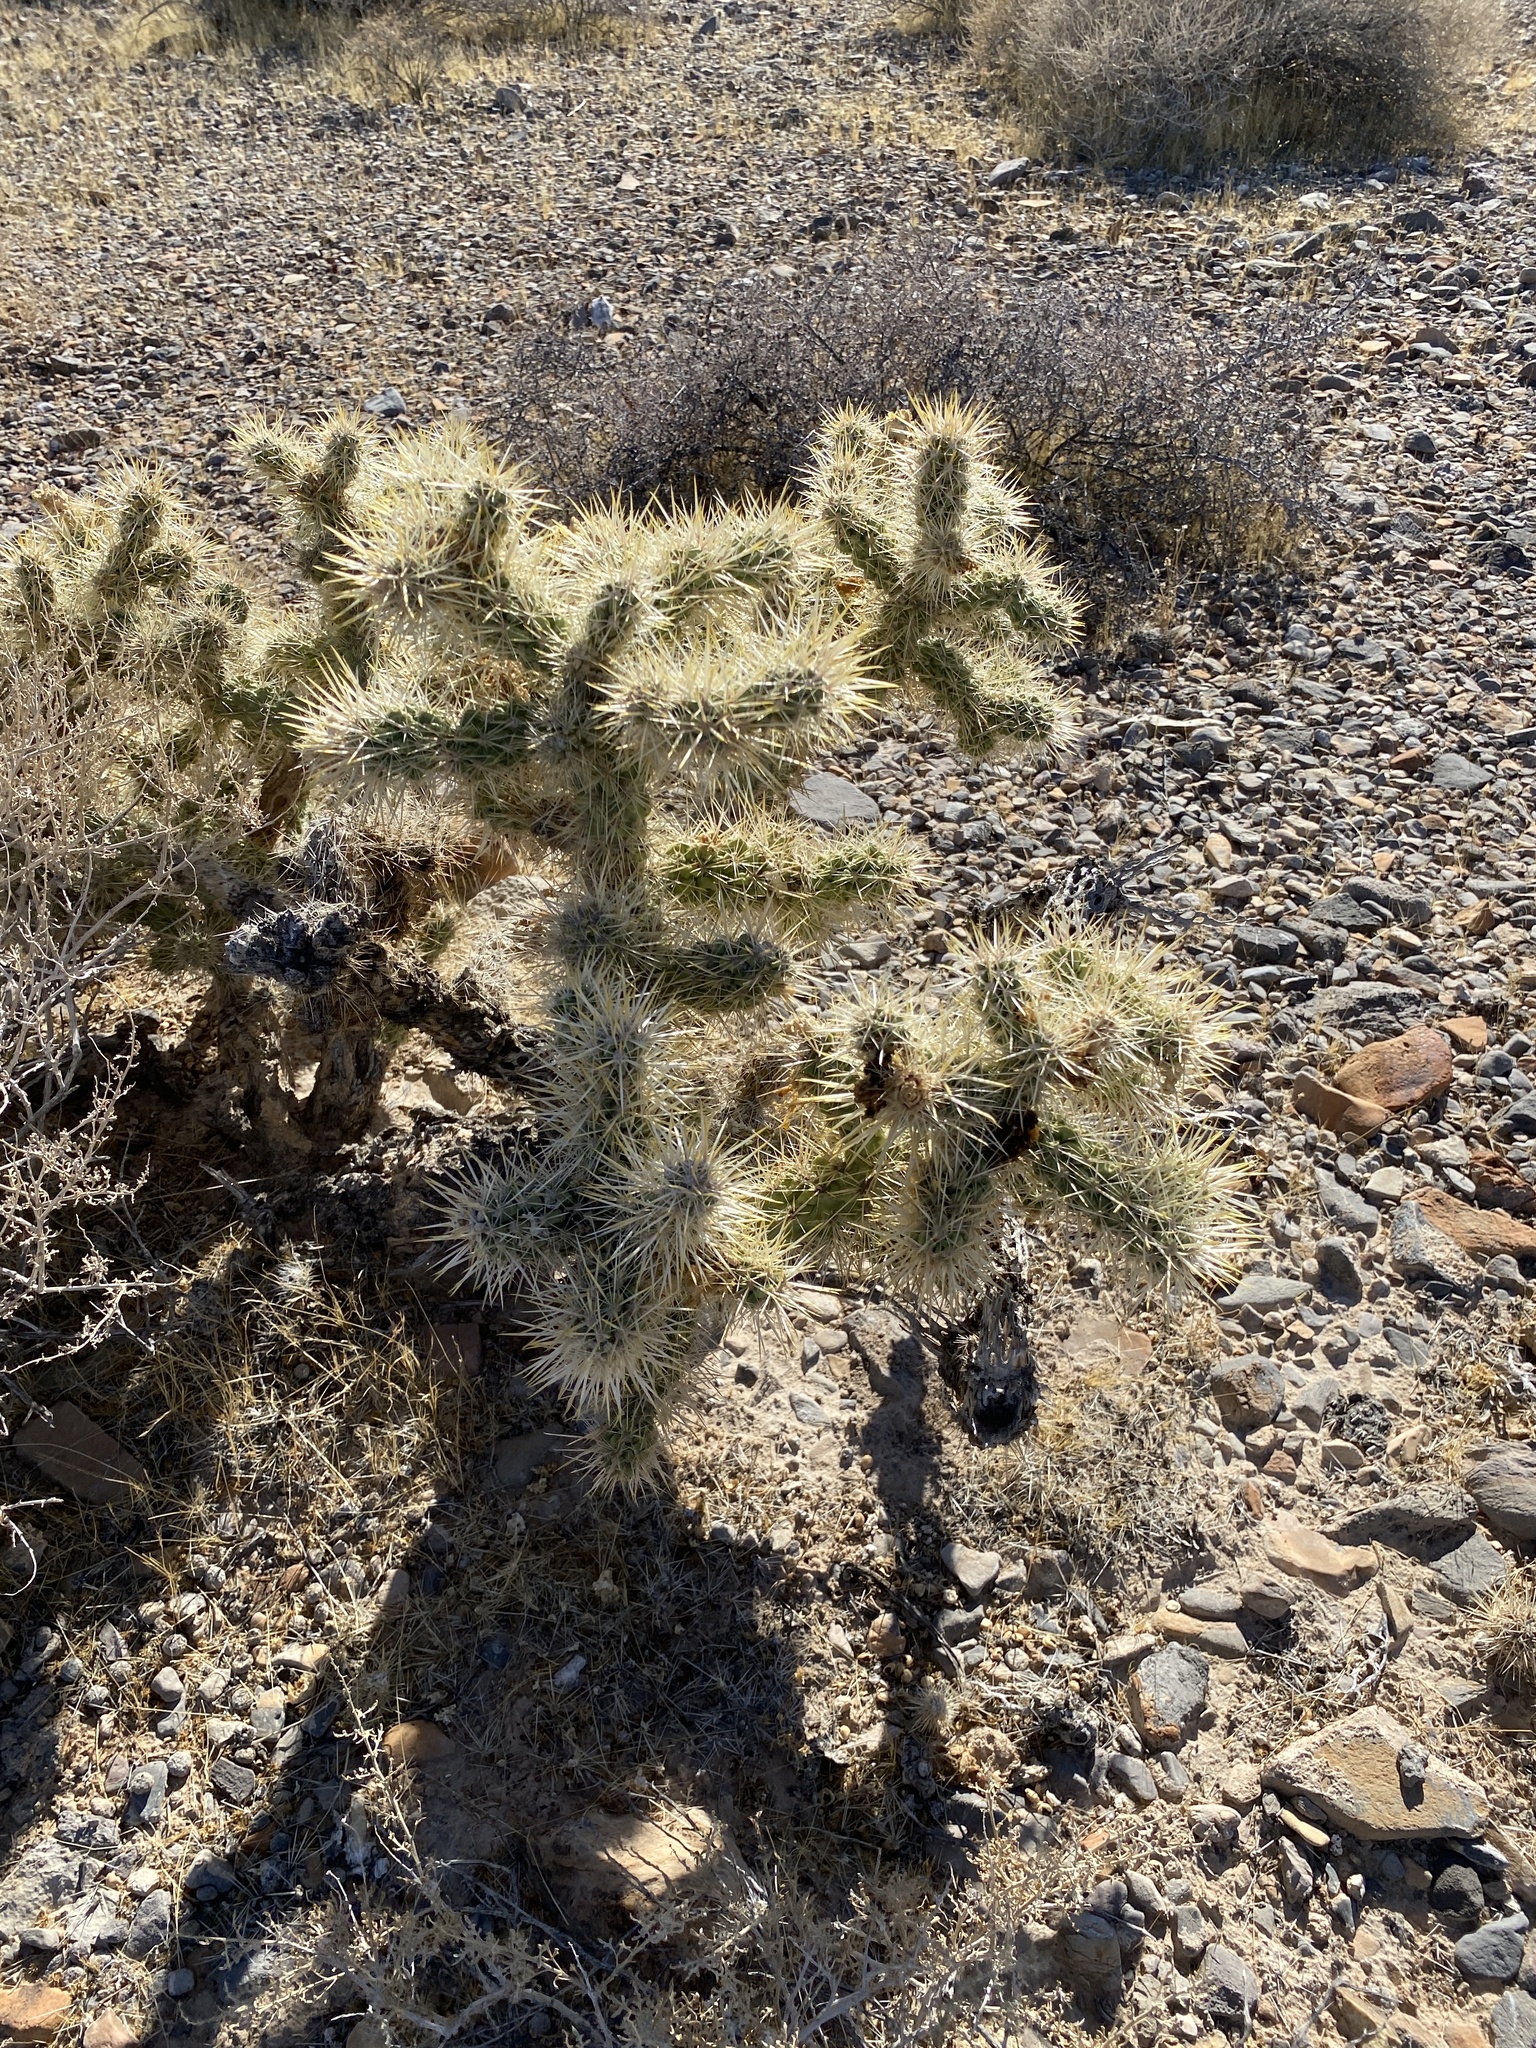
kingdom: Plantae
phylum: Tracheophyta
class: Magnoliopsida
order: Caryophyllales
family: Cactaceae
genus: Cylindropuntia
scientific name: Cylindropuntia echinocarpa
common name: Ground cholla
